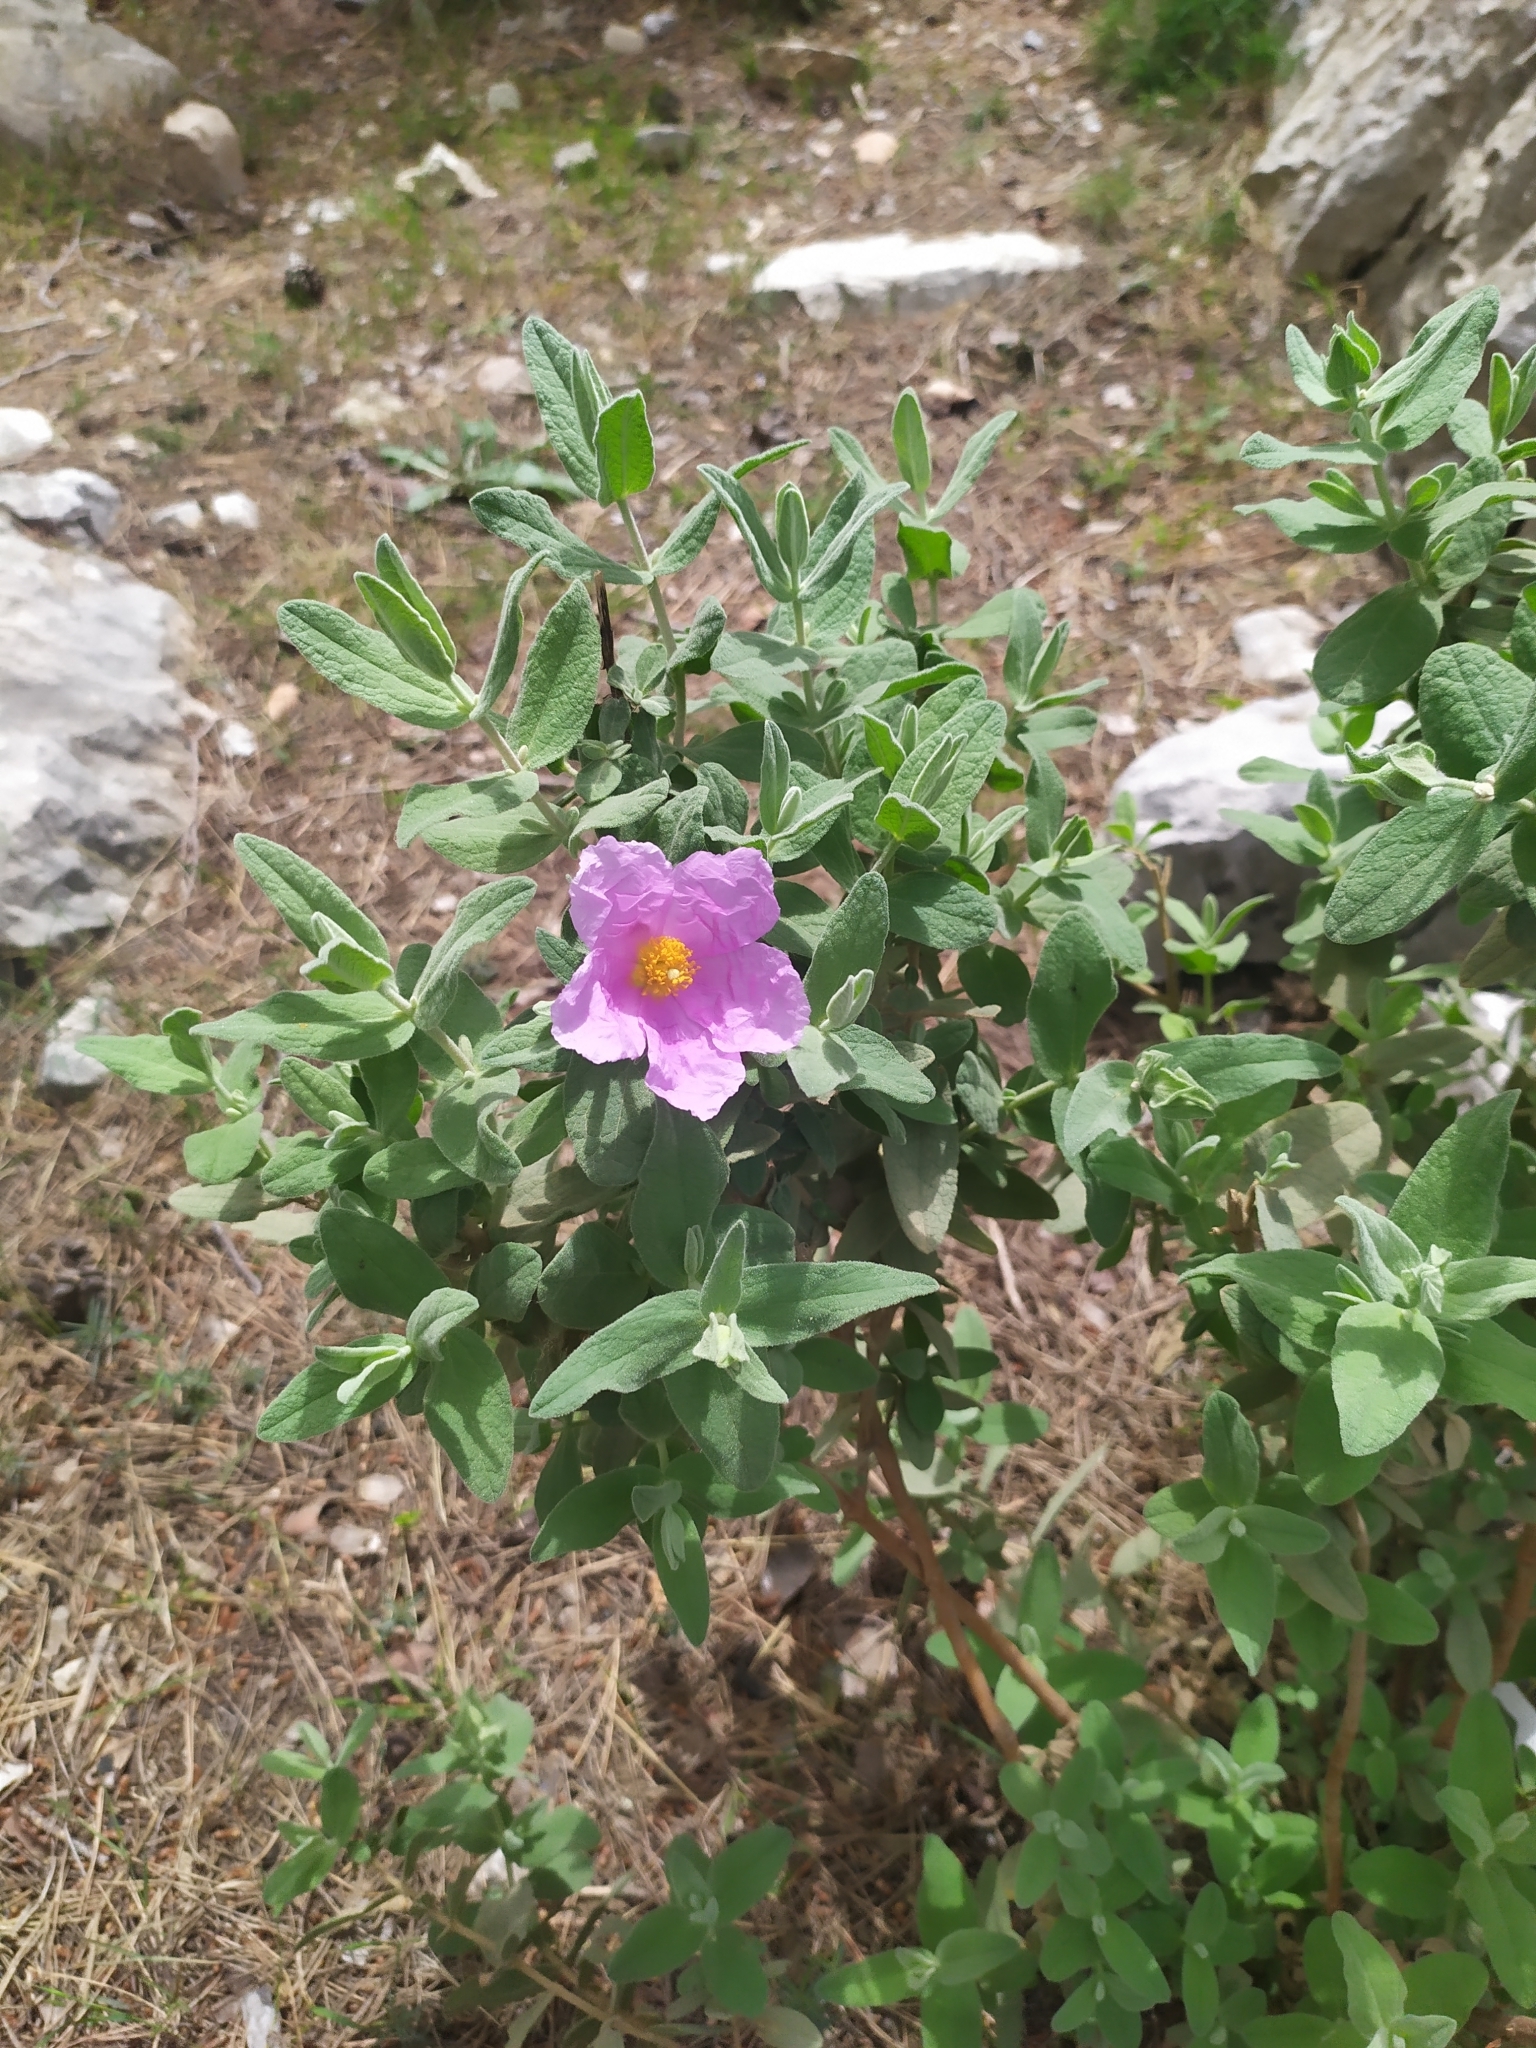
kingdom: Plantae
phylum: Tracheophyta
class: Magnoliopsida
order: Malvales
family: Cistaceae
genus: Cistus
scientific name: Cistus albidus
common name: White-leaf rock-rose
